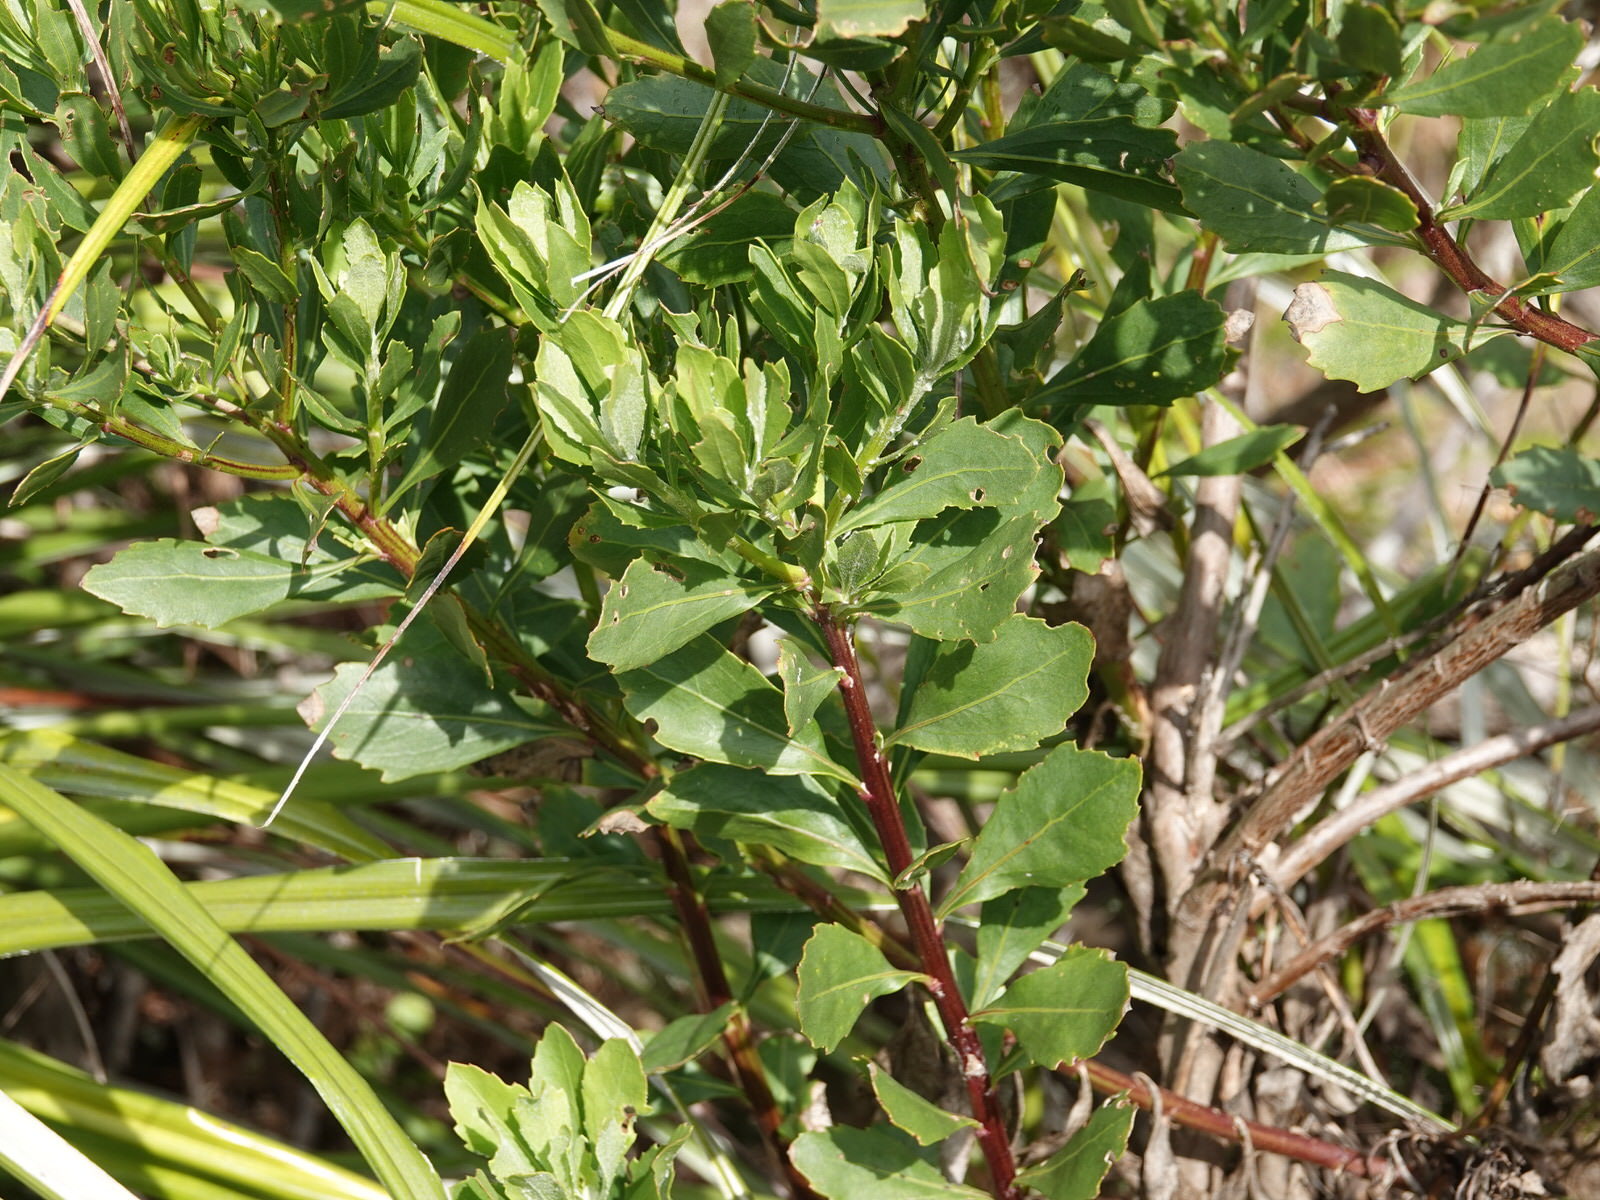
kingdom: Plantae
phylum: Tracheophyta
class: Magnoliopsida
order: Asterales
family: Asteraceae
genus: Osteospermum
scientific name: Osteospermum moniliferum
